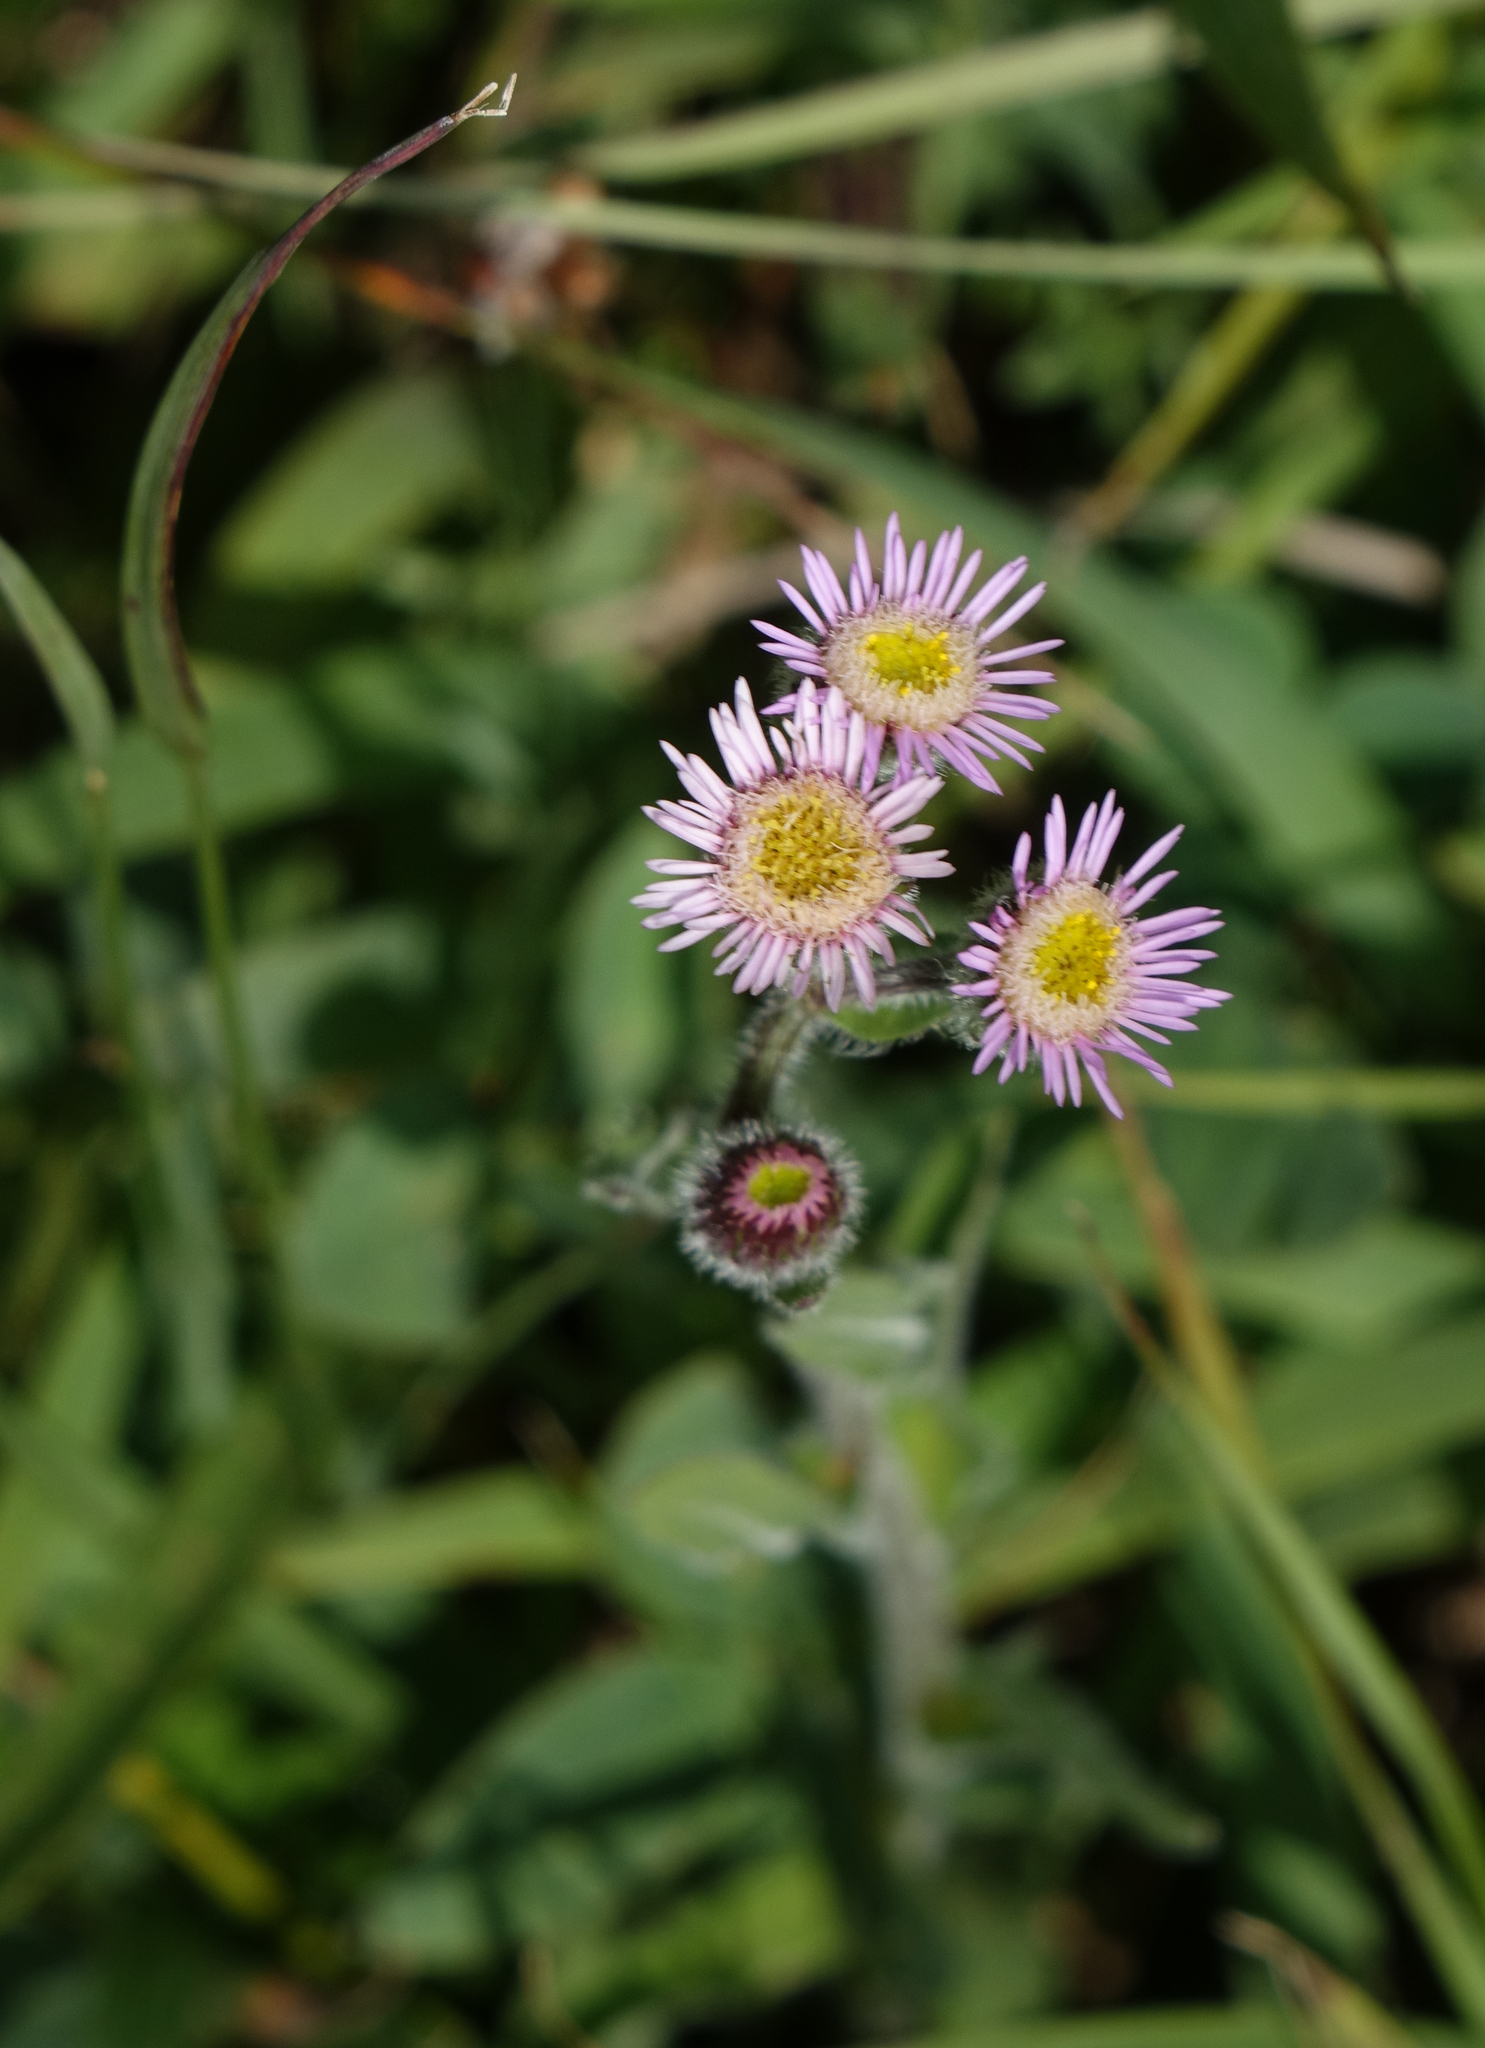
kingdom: Plantae
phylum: Tracheophyta
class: Magnoliopsida
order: Asterales
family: Asteraceae
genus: Erigeron
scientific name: Erigeron acris
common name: Blue fleabane
